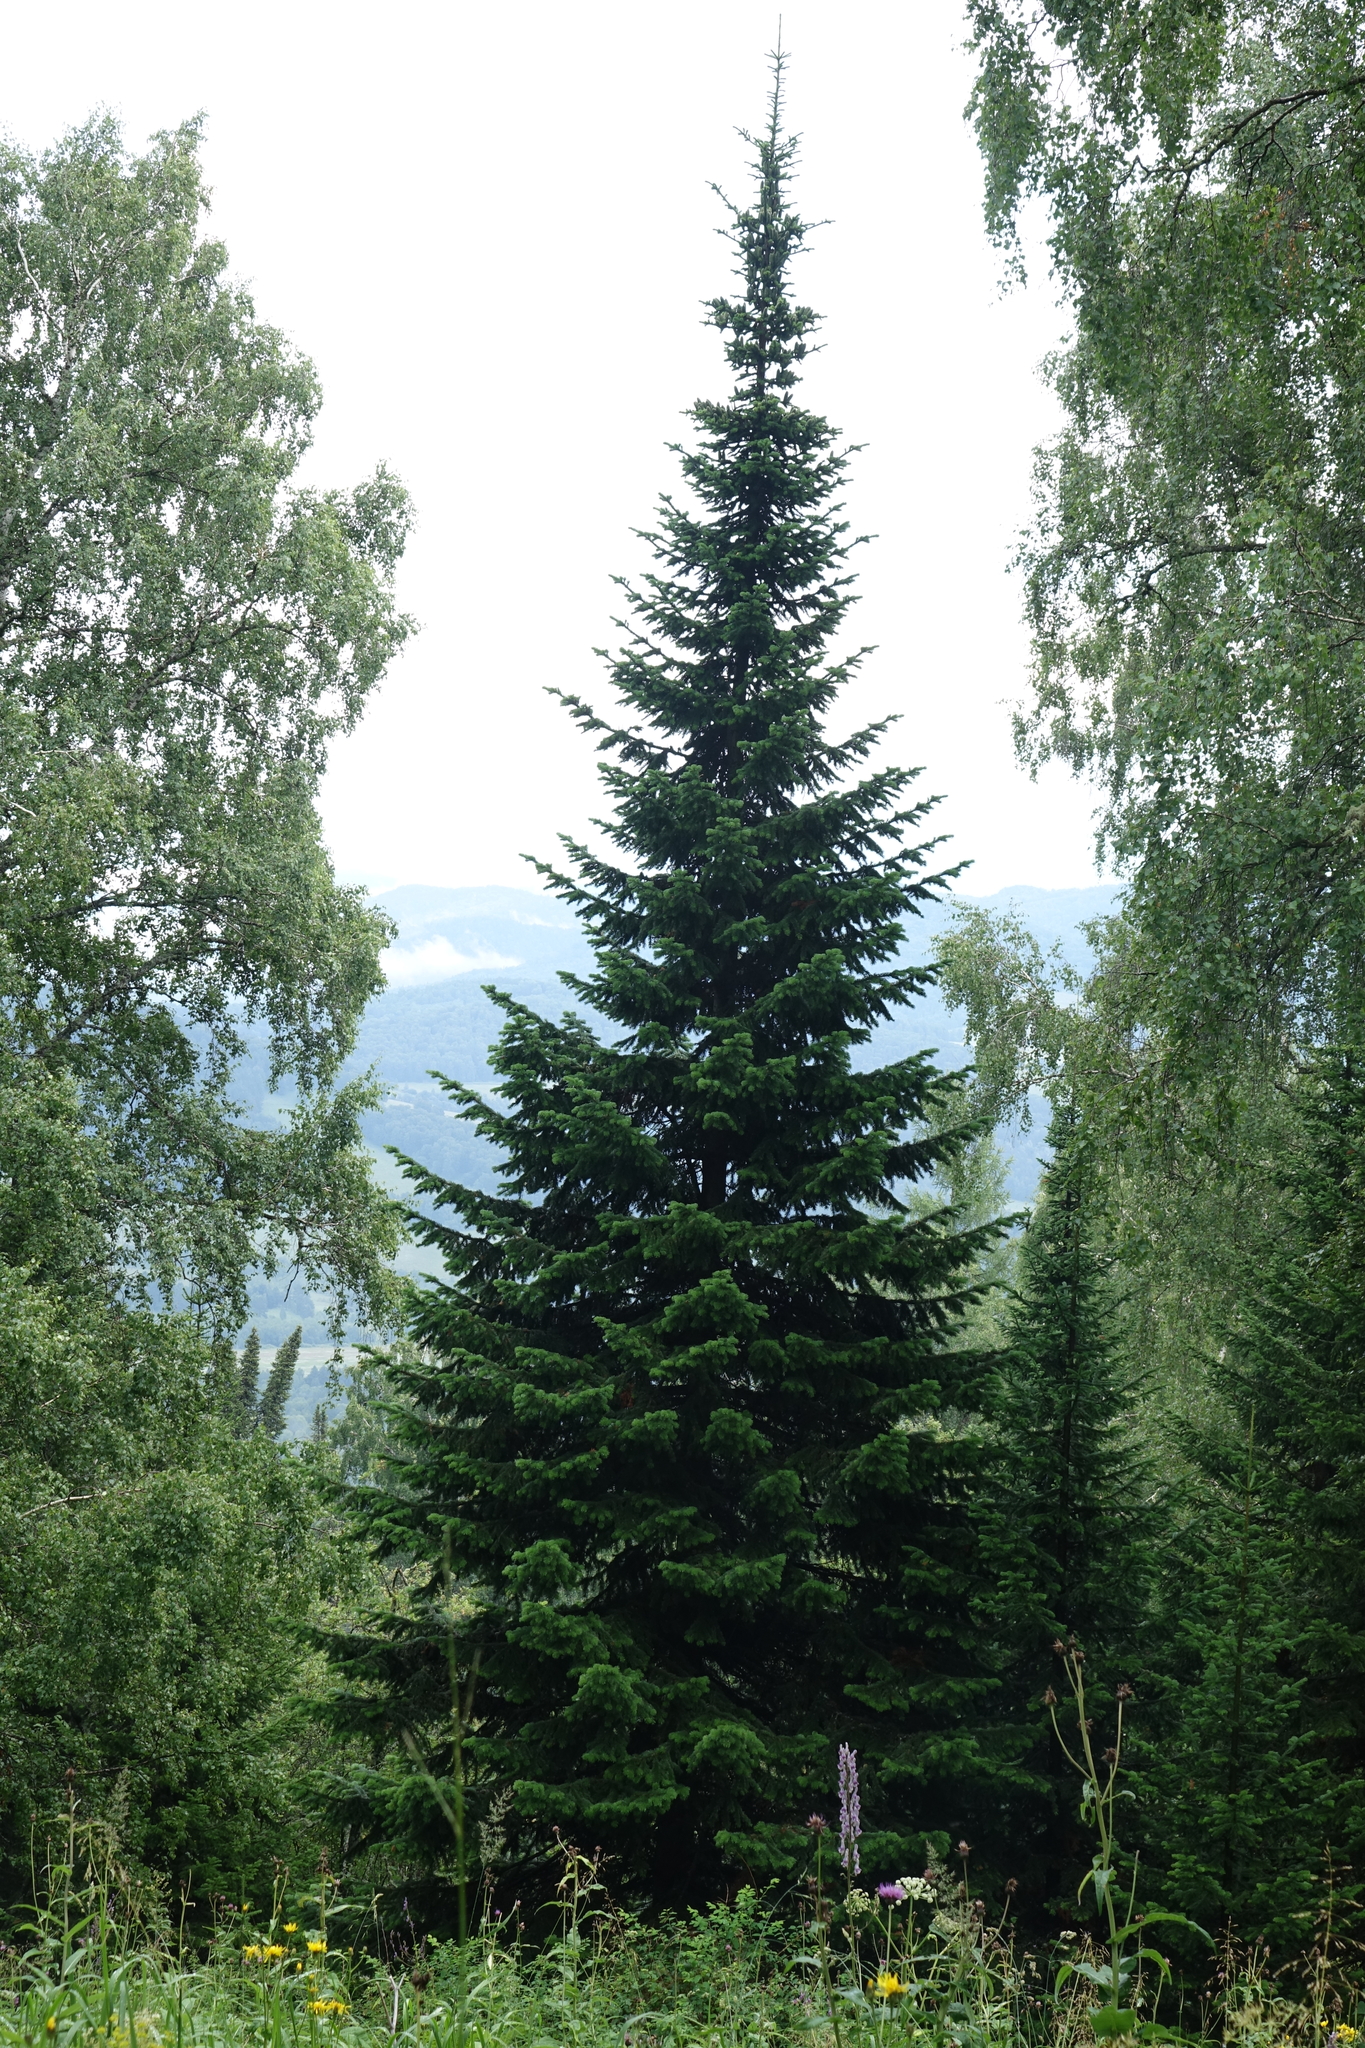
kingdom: Plantae
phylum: Tracheophyta
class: Pinopsida
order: Pinales
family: Pinaceae
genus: Abies
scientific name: Abies sibirica
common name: Siberian fir
